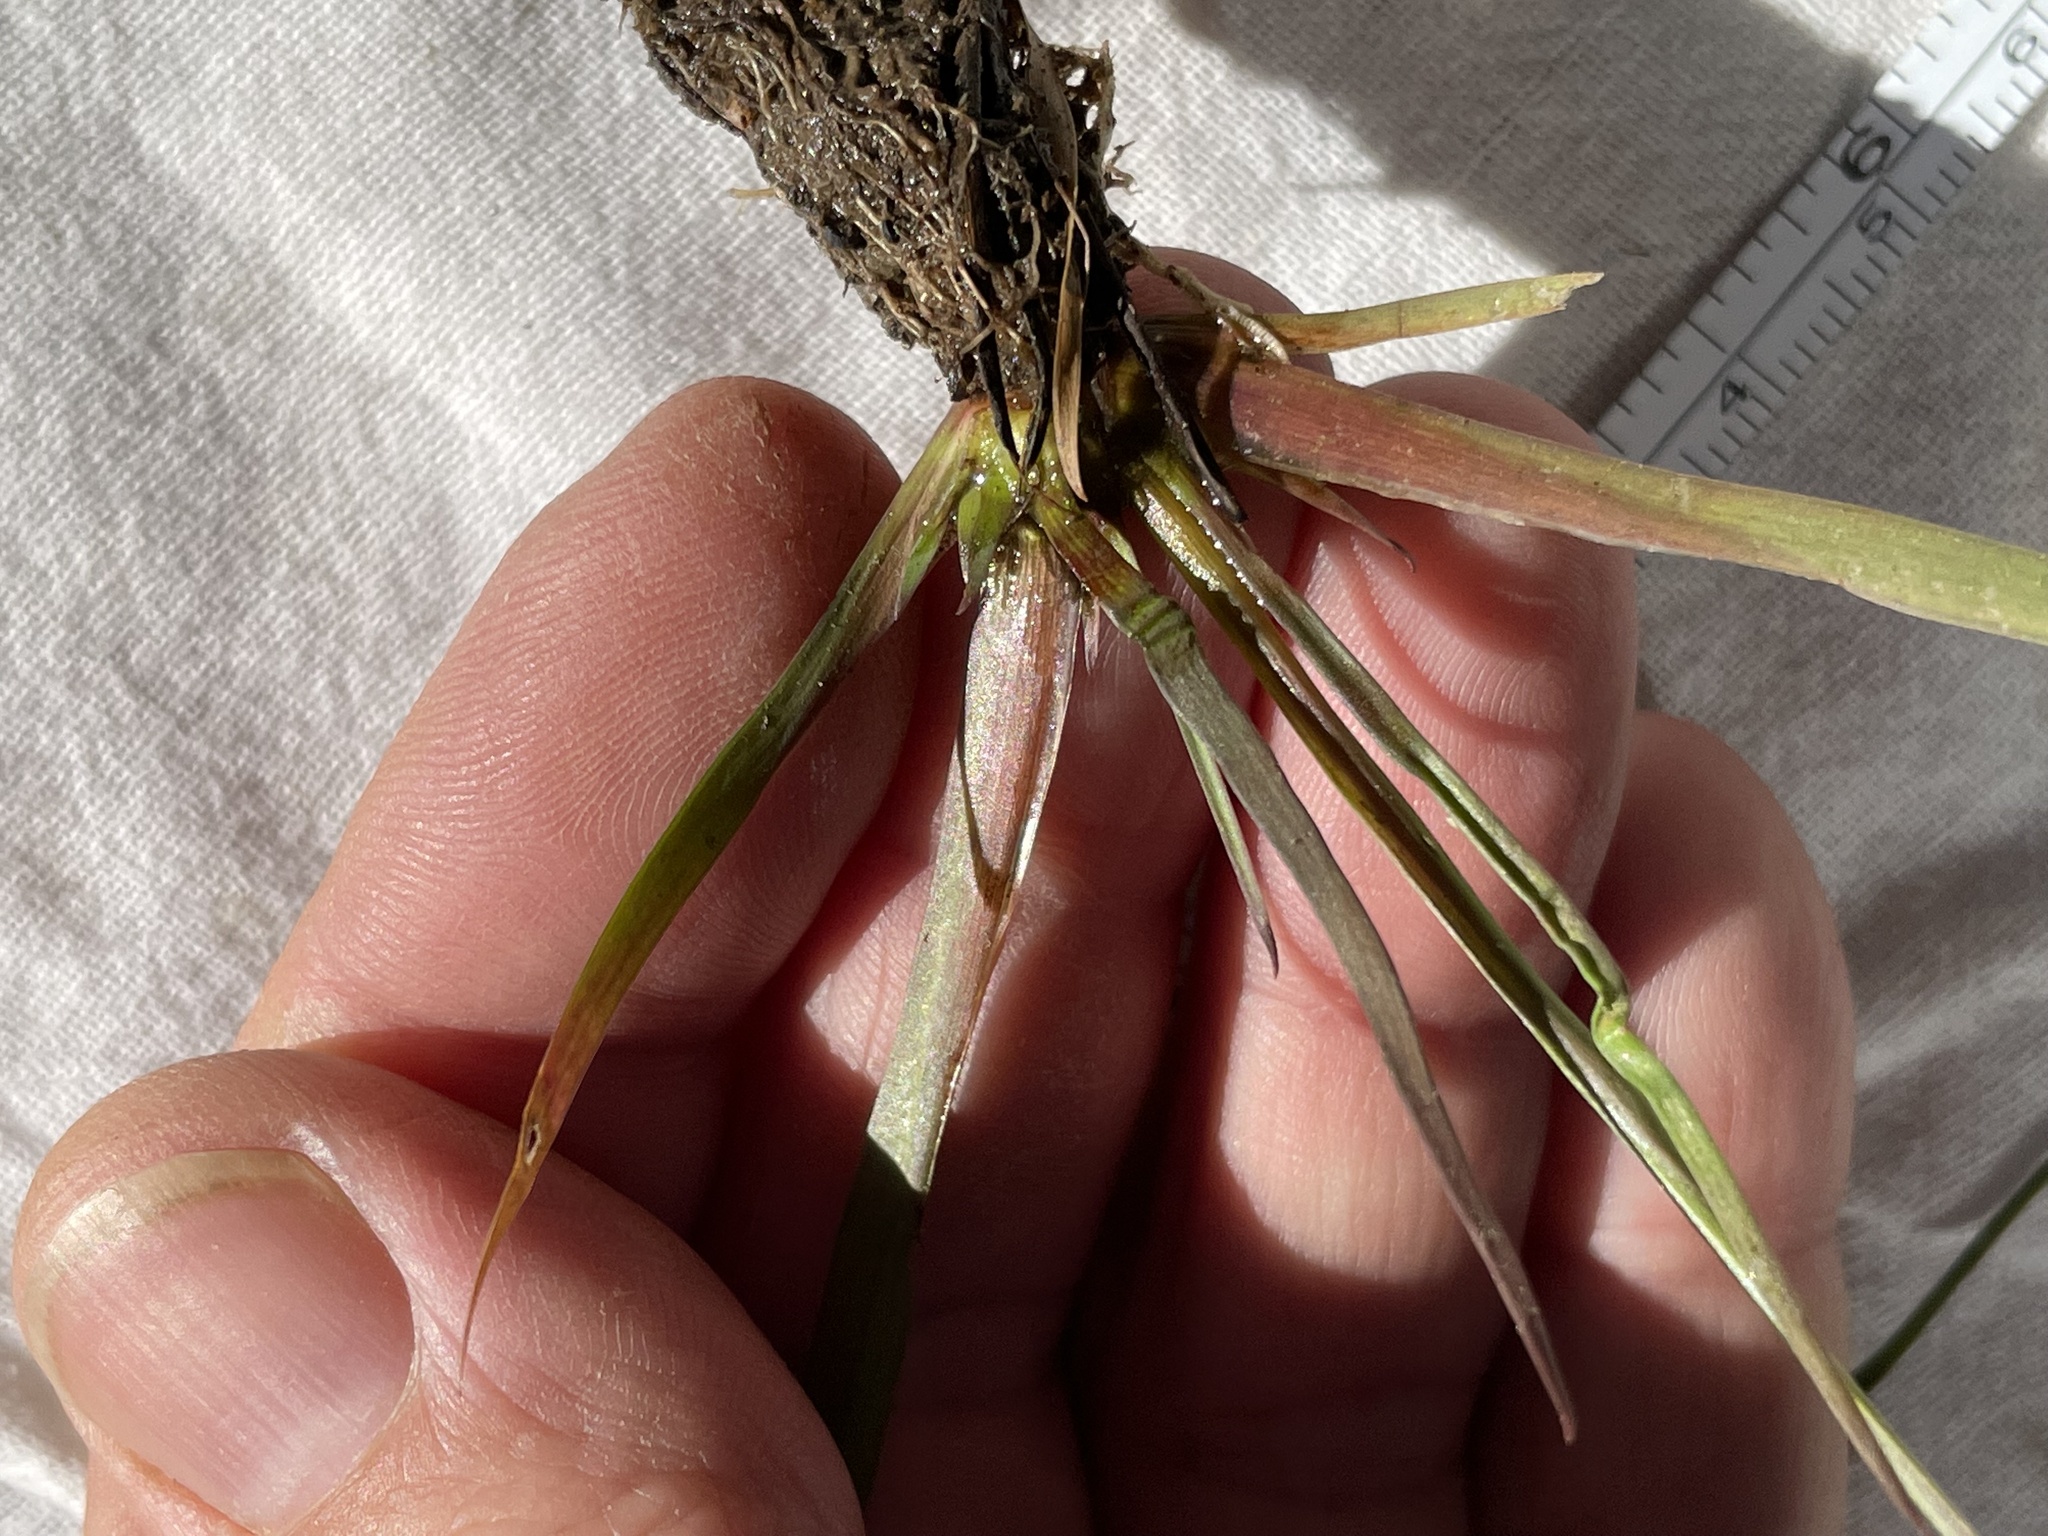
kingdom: Plantae
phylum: Tracheophyta
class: Liliopsida
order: Poales
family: Xyridaceae
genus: Xyris
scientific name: Xyris difformis
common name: Bog yellow-eyed-grass
